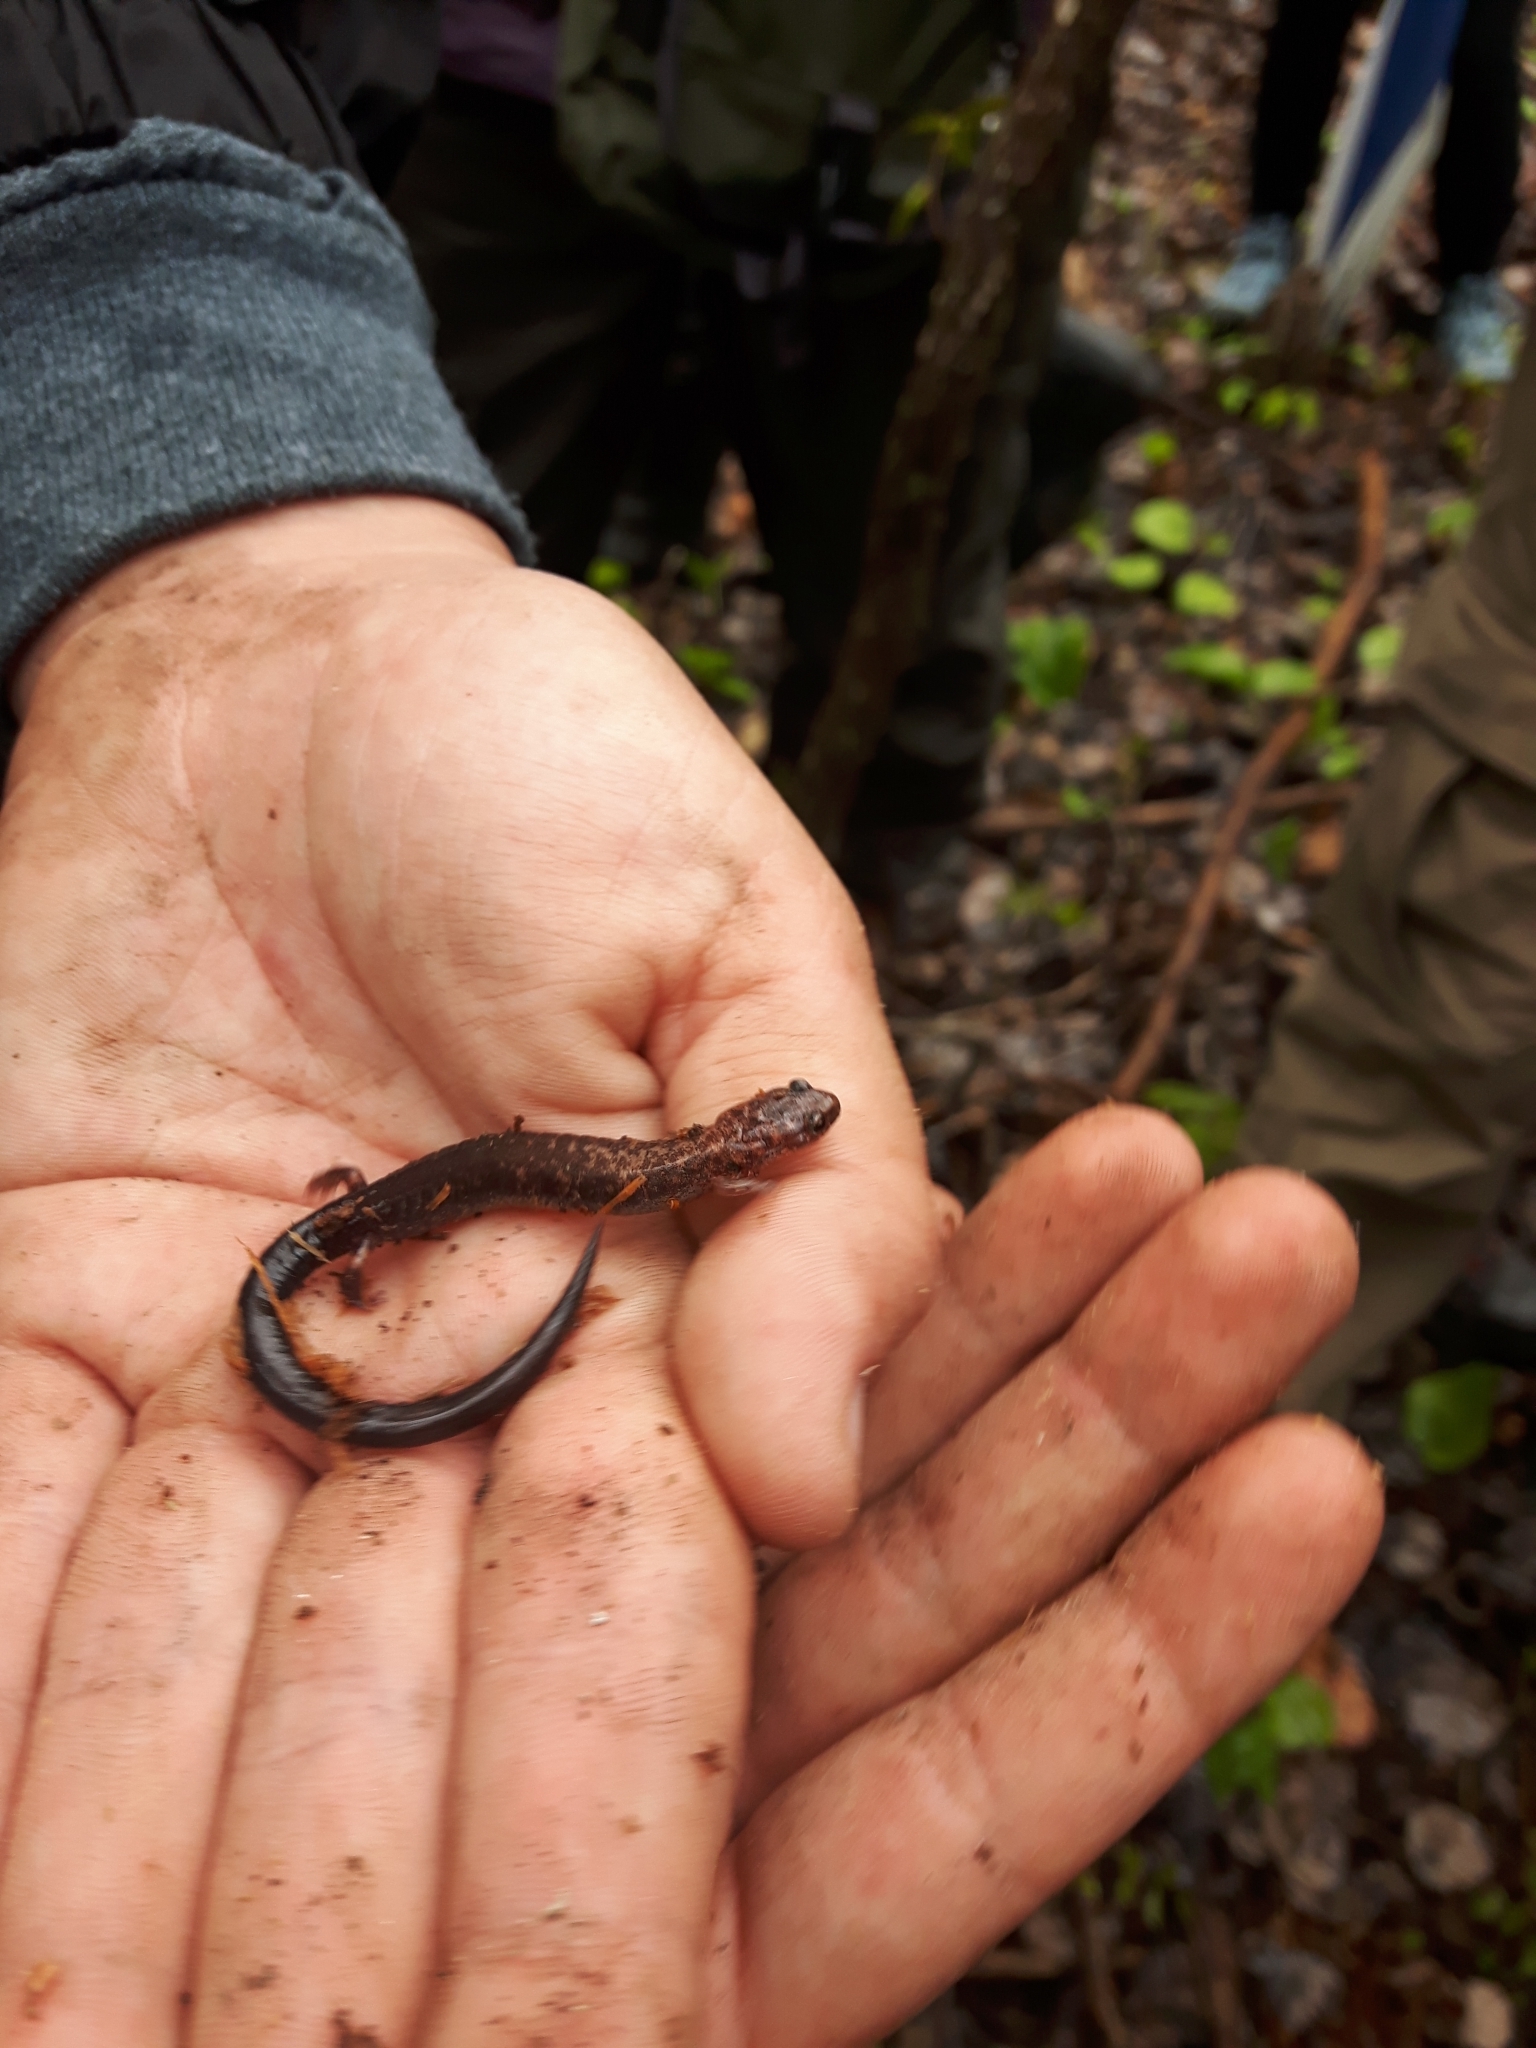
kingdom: Animalia
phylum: Chordata
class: Amphibia
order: Caudata
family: Plethodontidae
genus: Plethodon
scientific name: Plethodon cinereus
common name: Redback salamander
